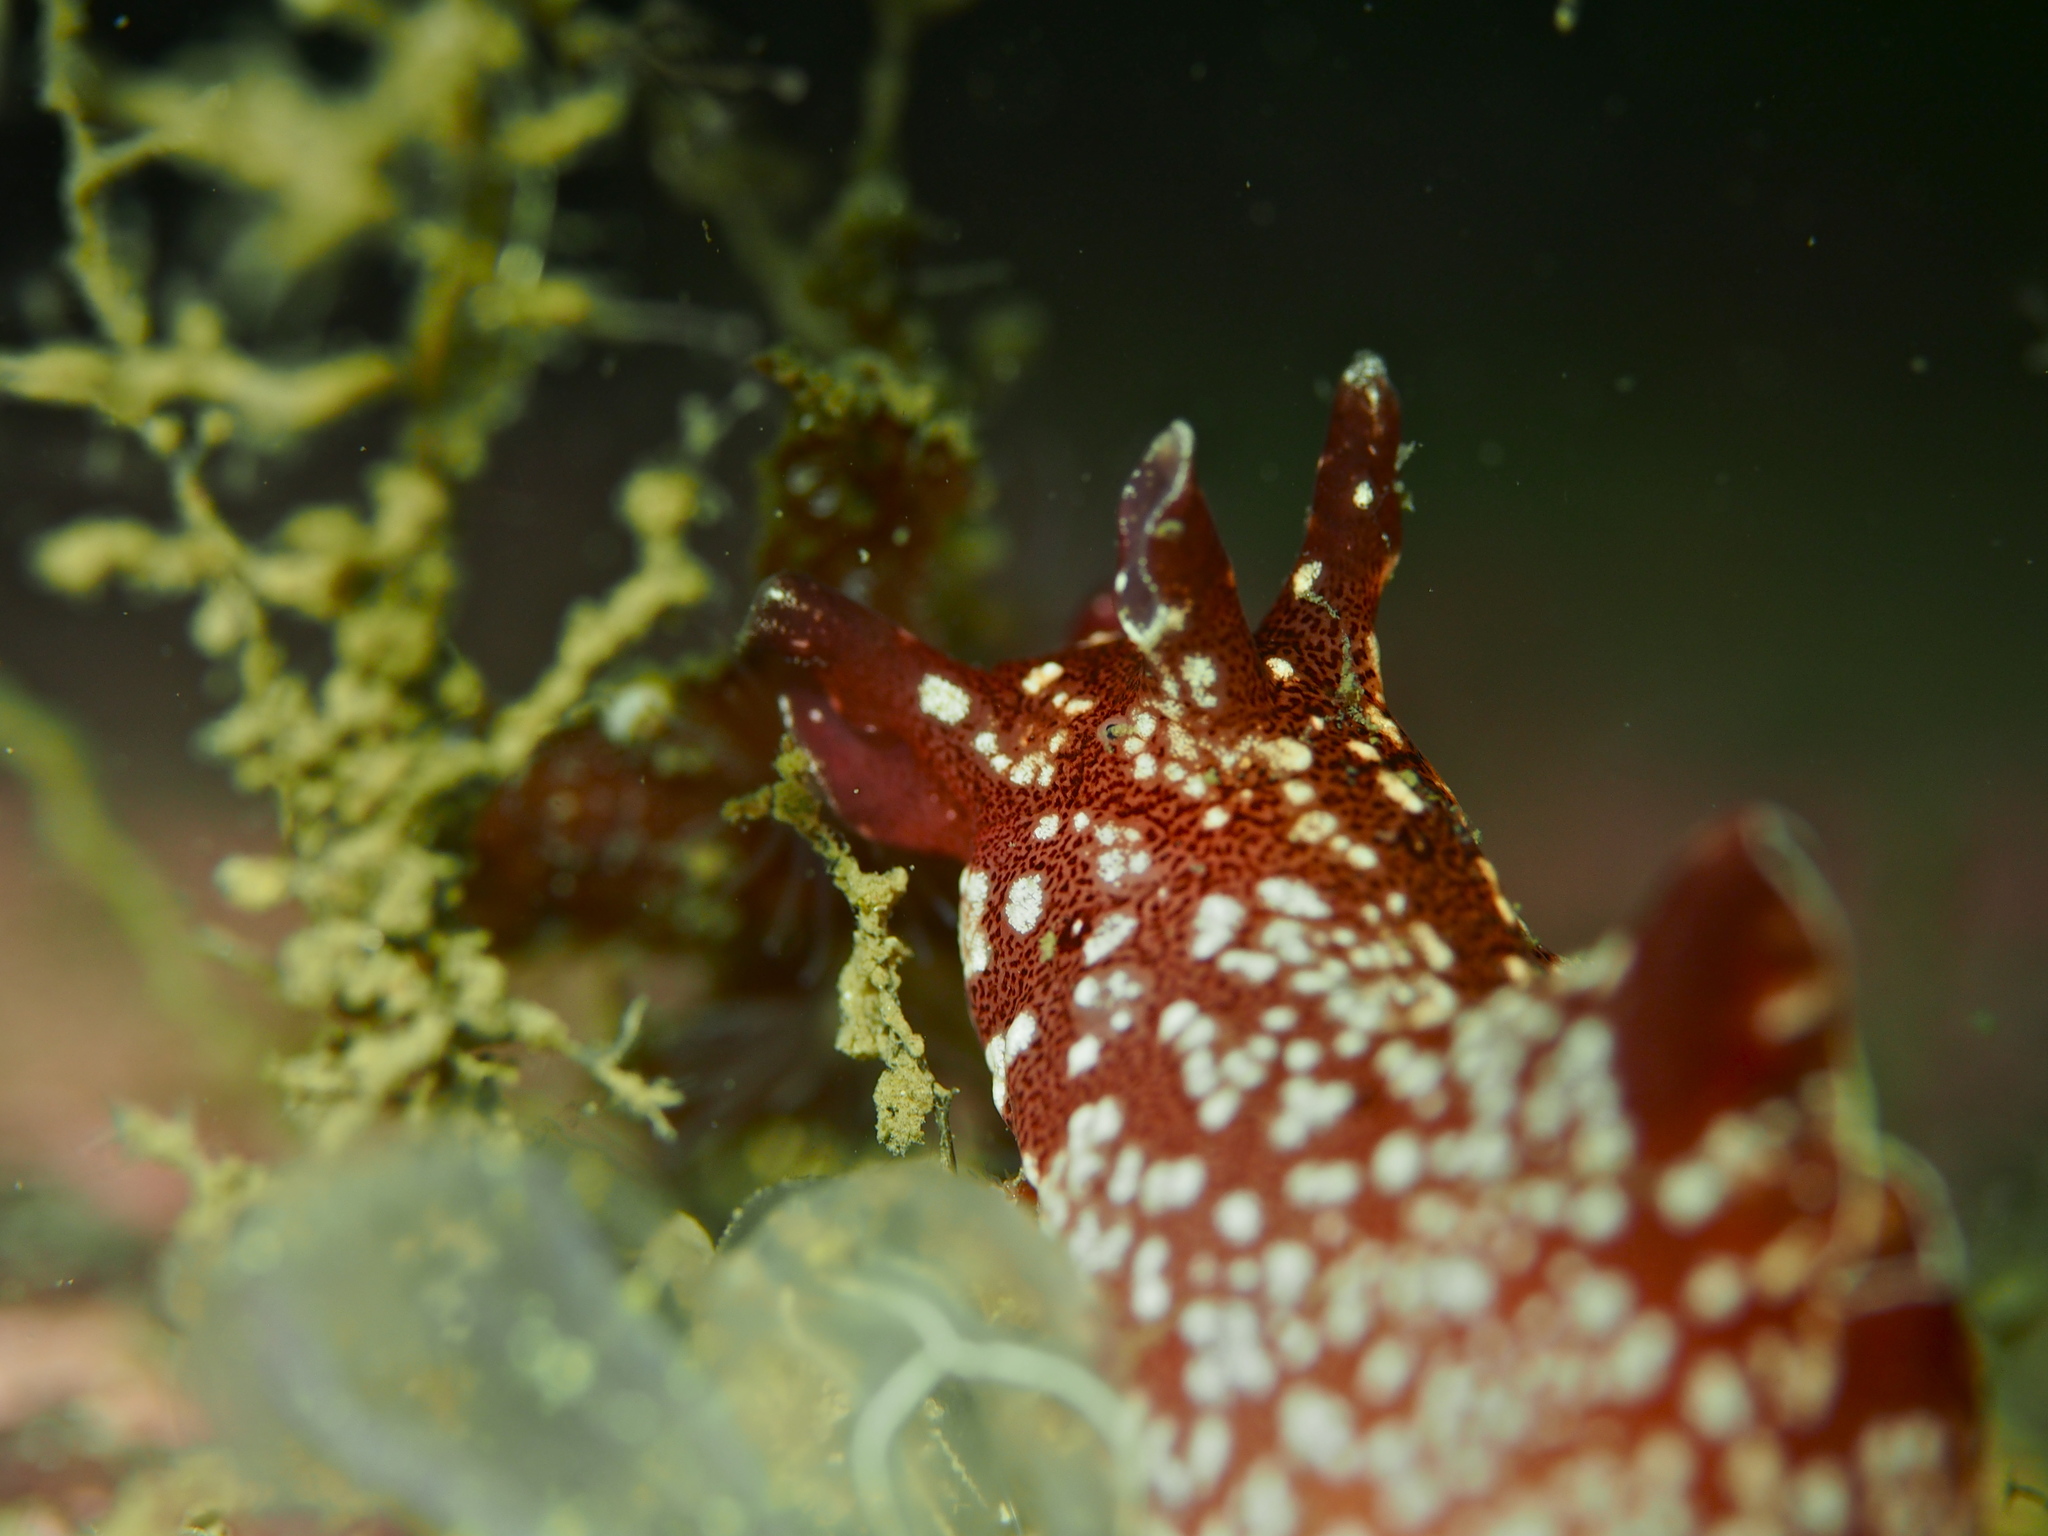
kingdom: Animalia
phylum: Mollusca
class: Gastropoda
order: Aplysiida
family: Aplysiidae
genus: Aplysia
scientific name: Aplysia punctata
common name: Common sea hare
